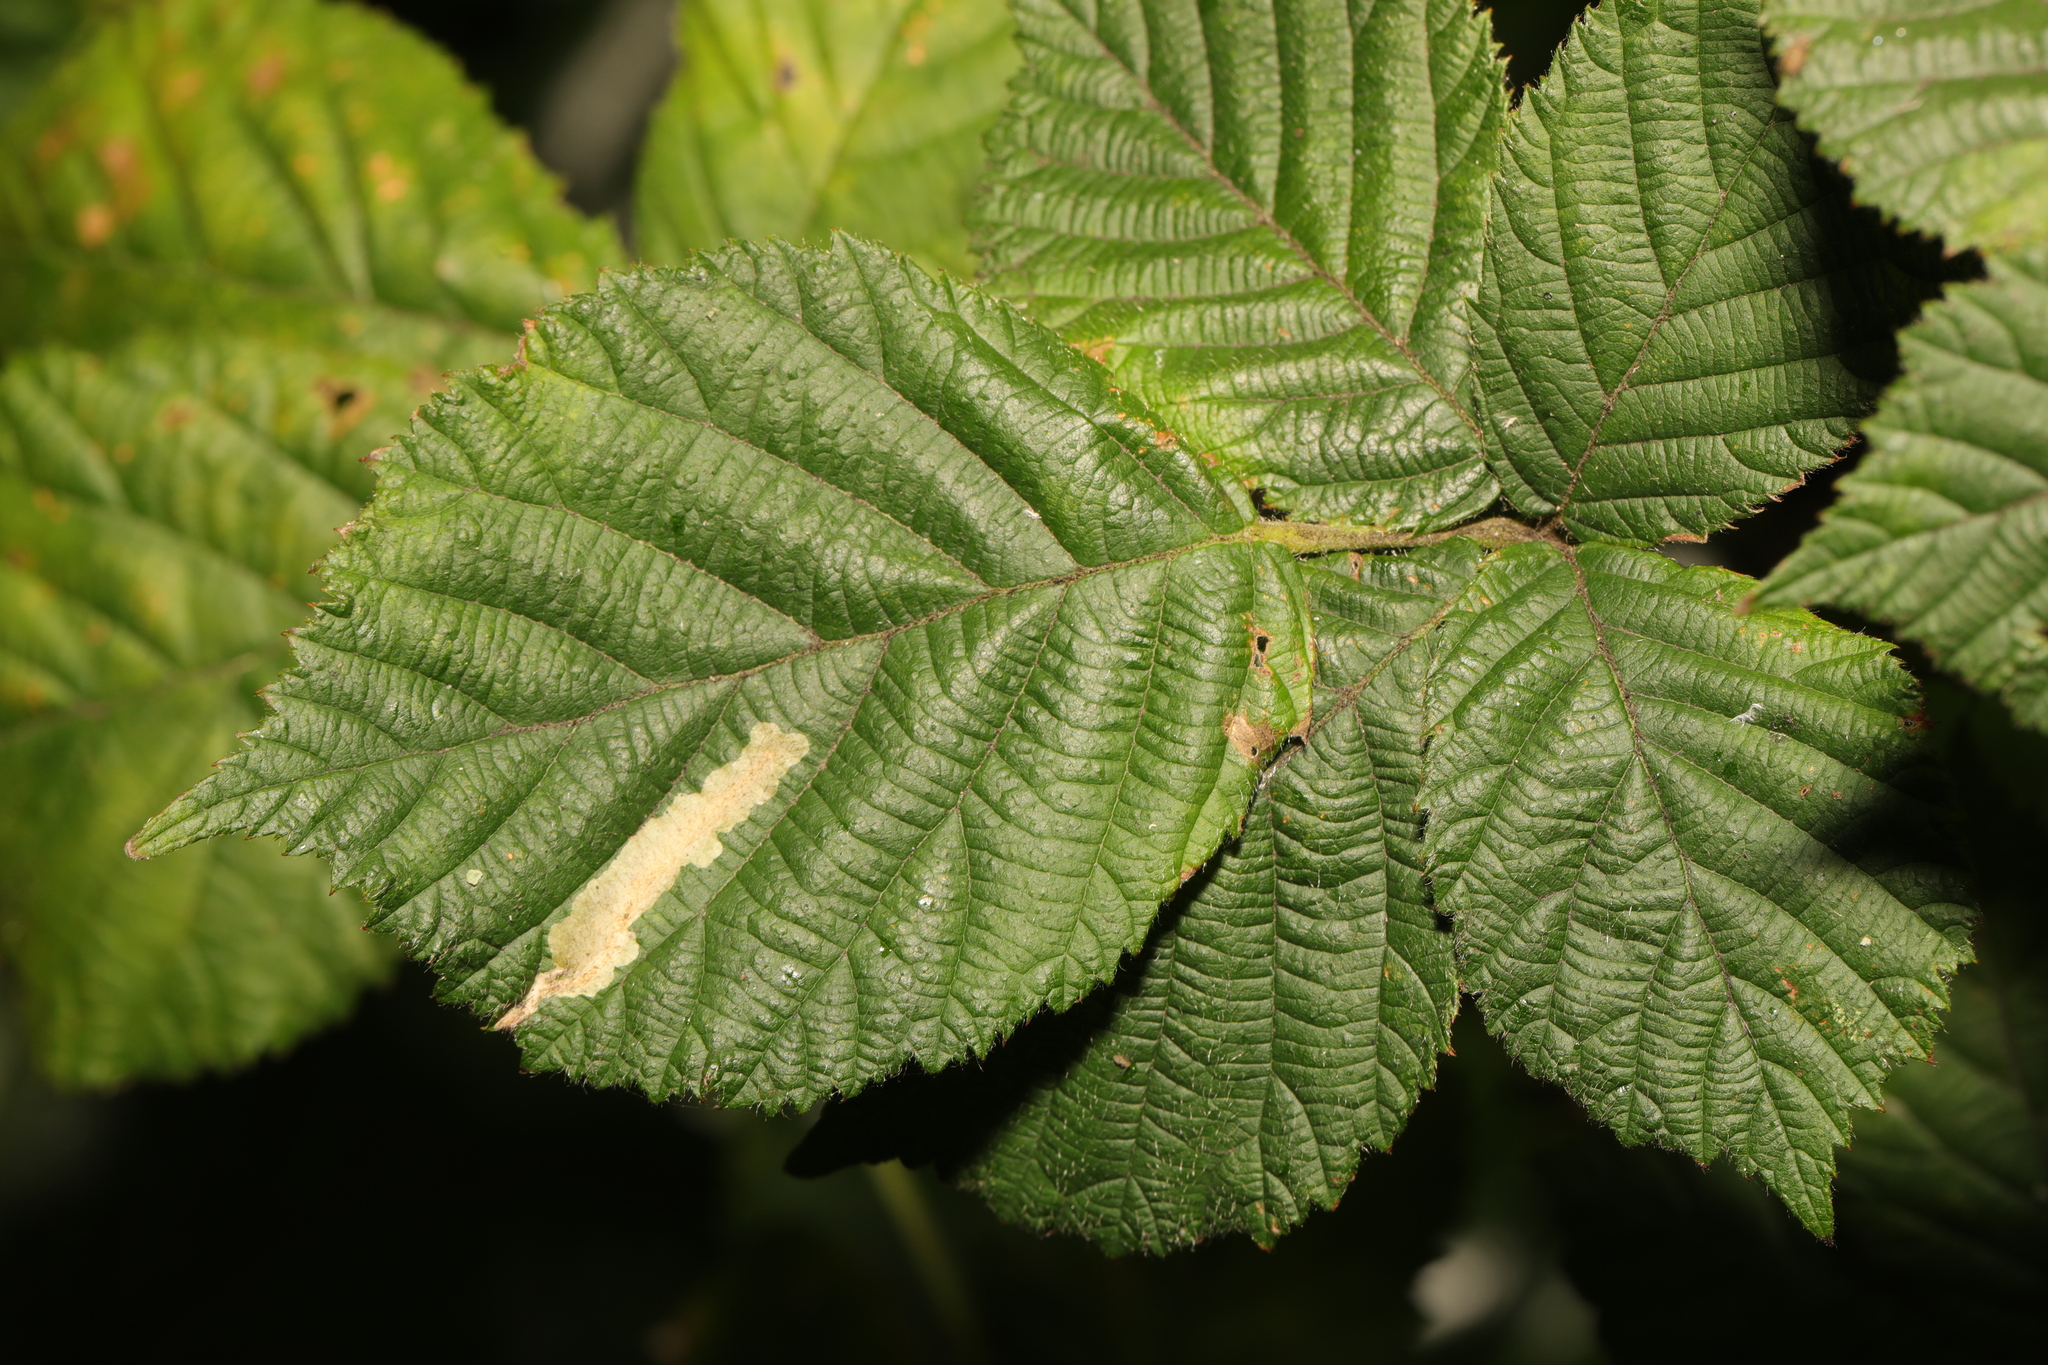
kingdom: Plantae
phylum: Tracheophyta
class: Magnoliopsida
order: Rosales
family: Rosaceae
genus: Rubus
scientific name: Rubus armeniacus
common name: Himalayan blackberry
